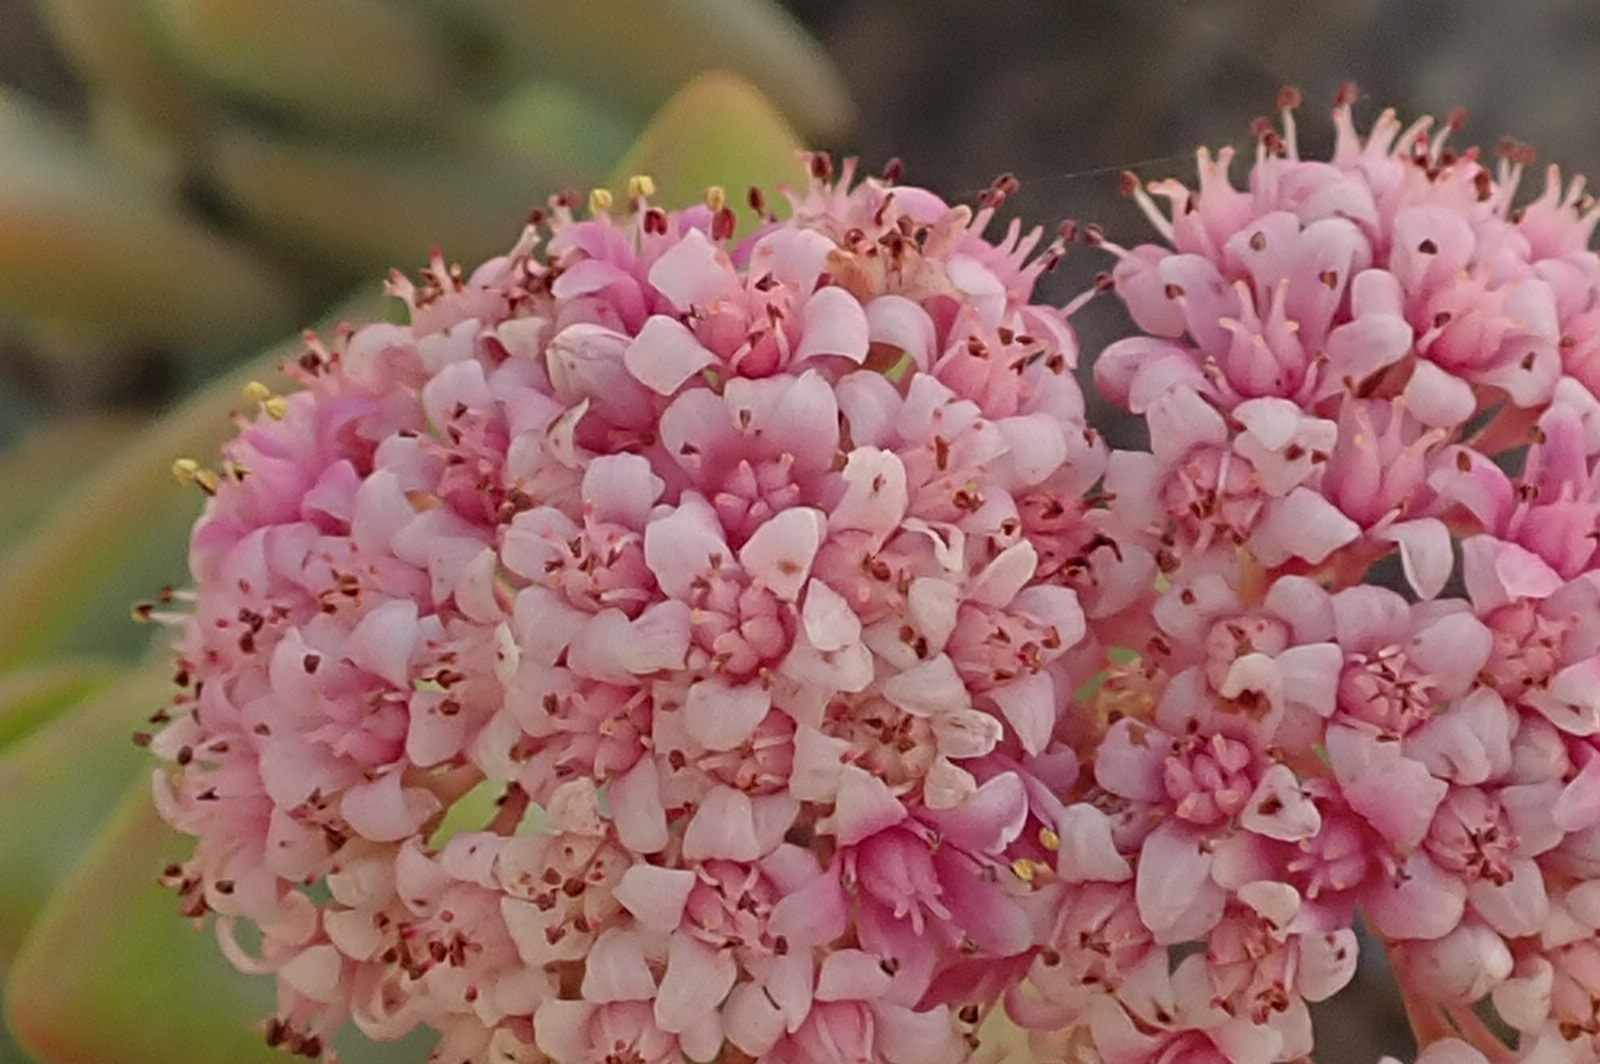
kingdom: Plantae
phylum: Tracheophyta
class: Magnoliopsida
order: Saxifragales
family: Crassulaceae
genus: Crassula
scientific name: Crassula rupestris
